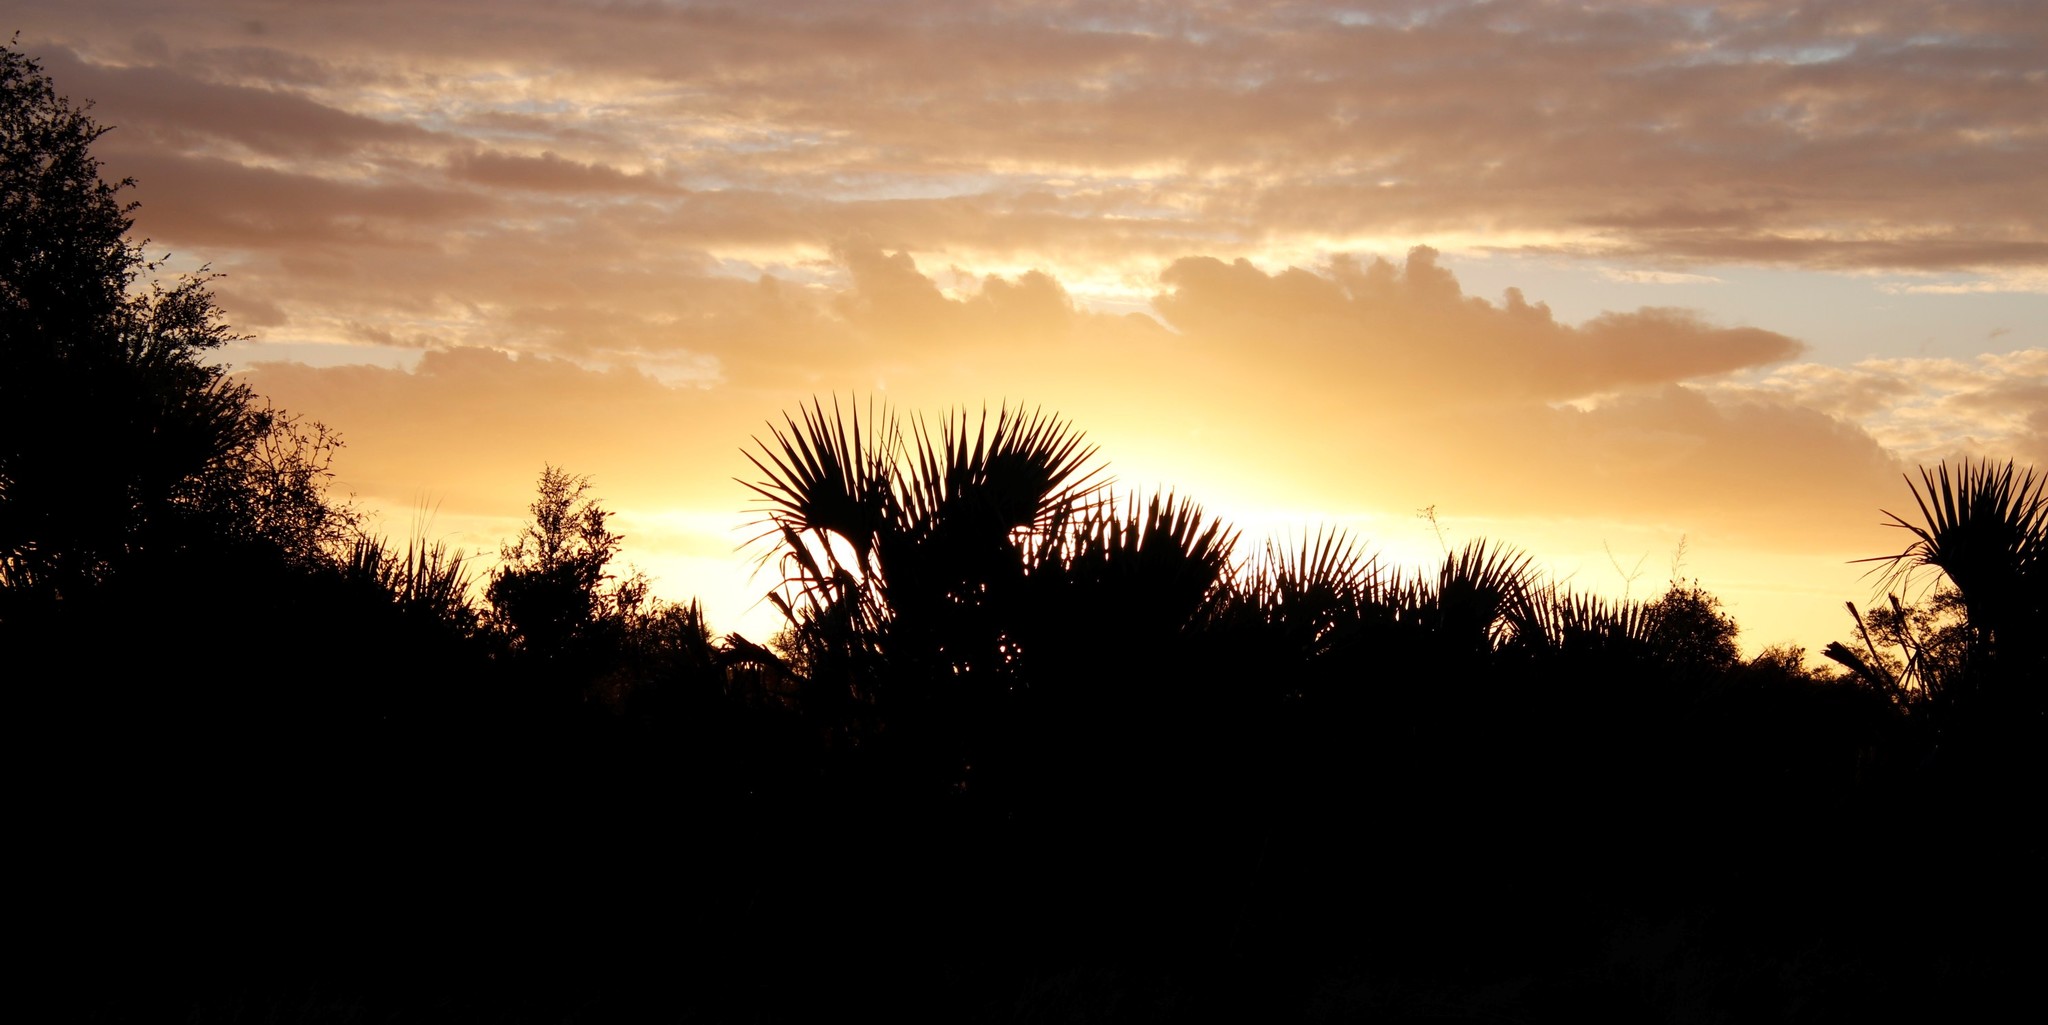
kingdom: Plantae
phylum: Tracheophyta
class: Liliopsida
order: Arecales
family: Arecaceae
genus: Hyphaene
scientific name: Hyphaene coriacea
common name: Ilala palm
